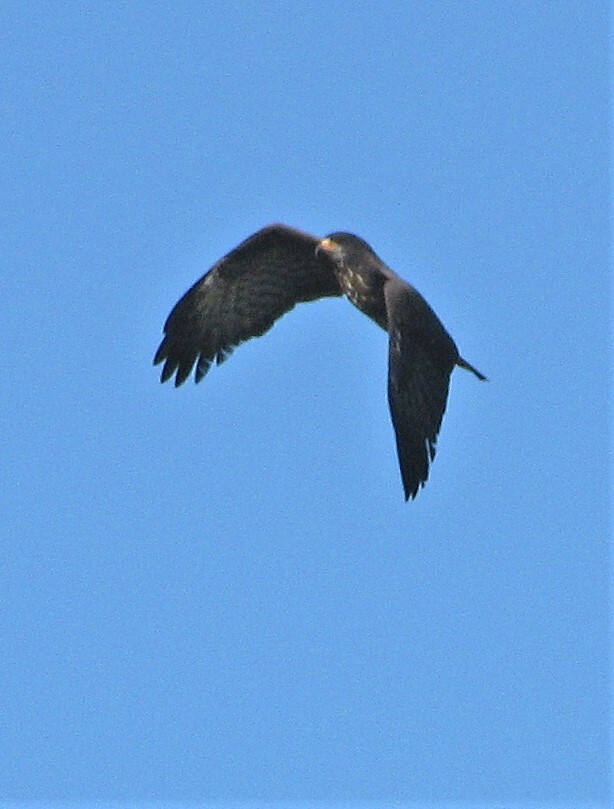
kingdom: Animalia
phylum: Chordata
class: Aves
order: Accipitriformes
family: Accipitridae
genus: Rostrhamus
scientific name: Rostrhamus sociabilis
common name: Snail kite
